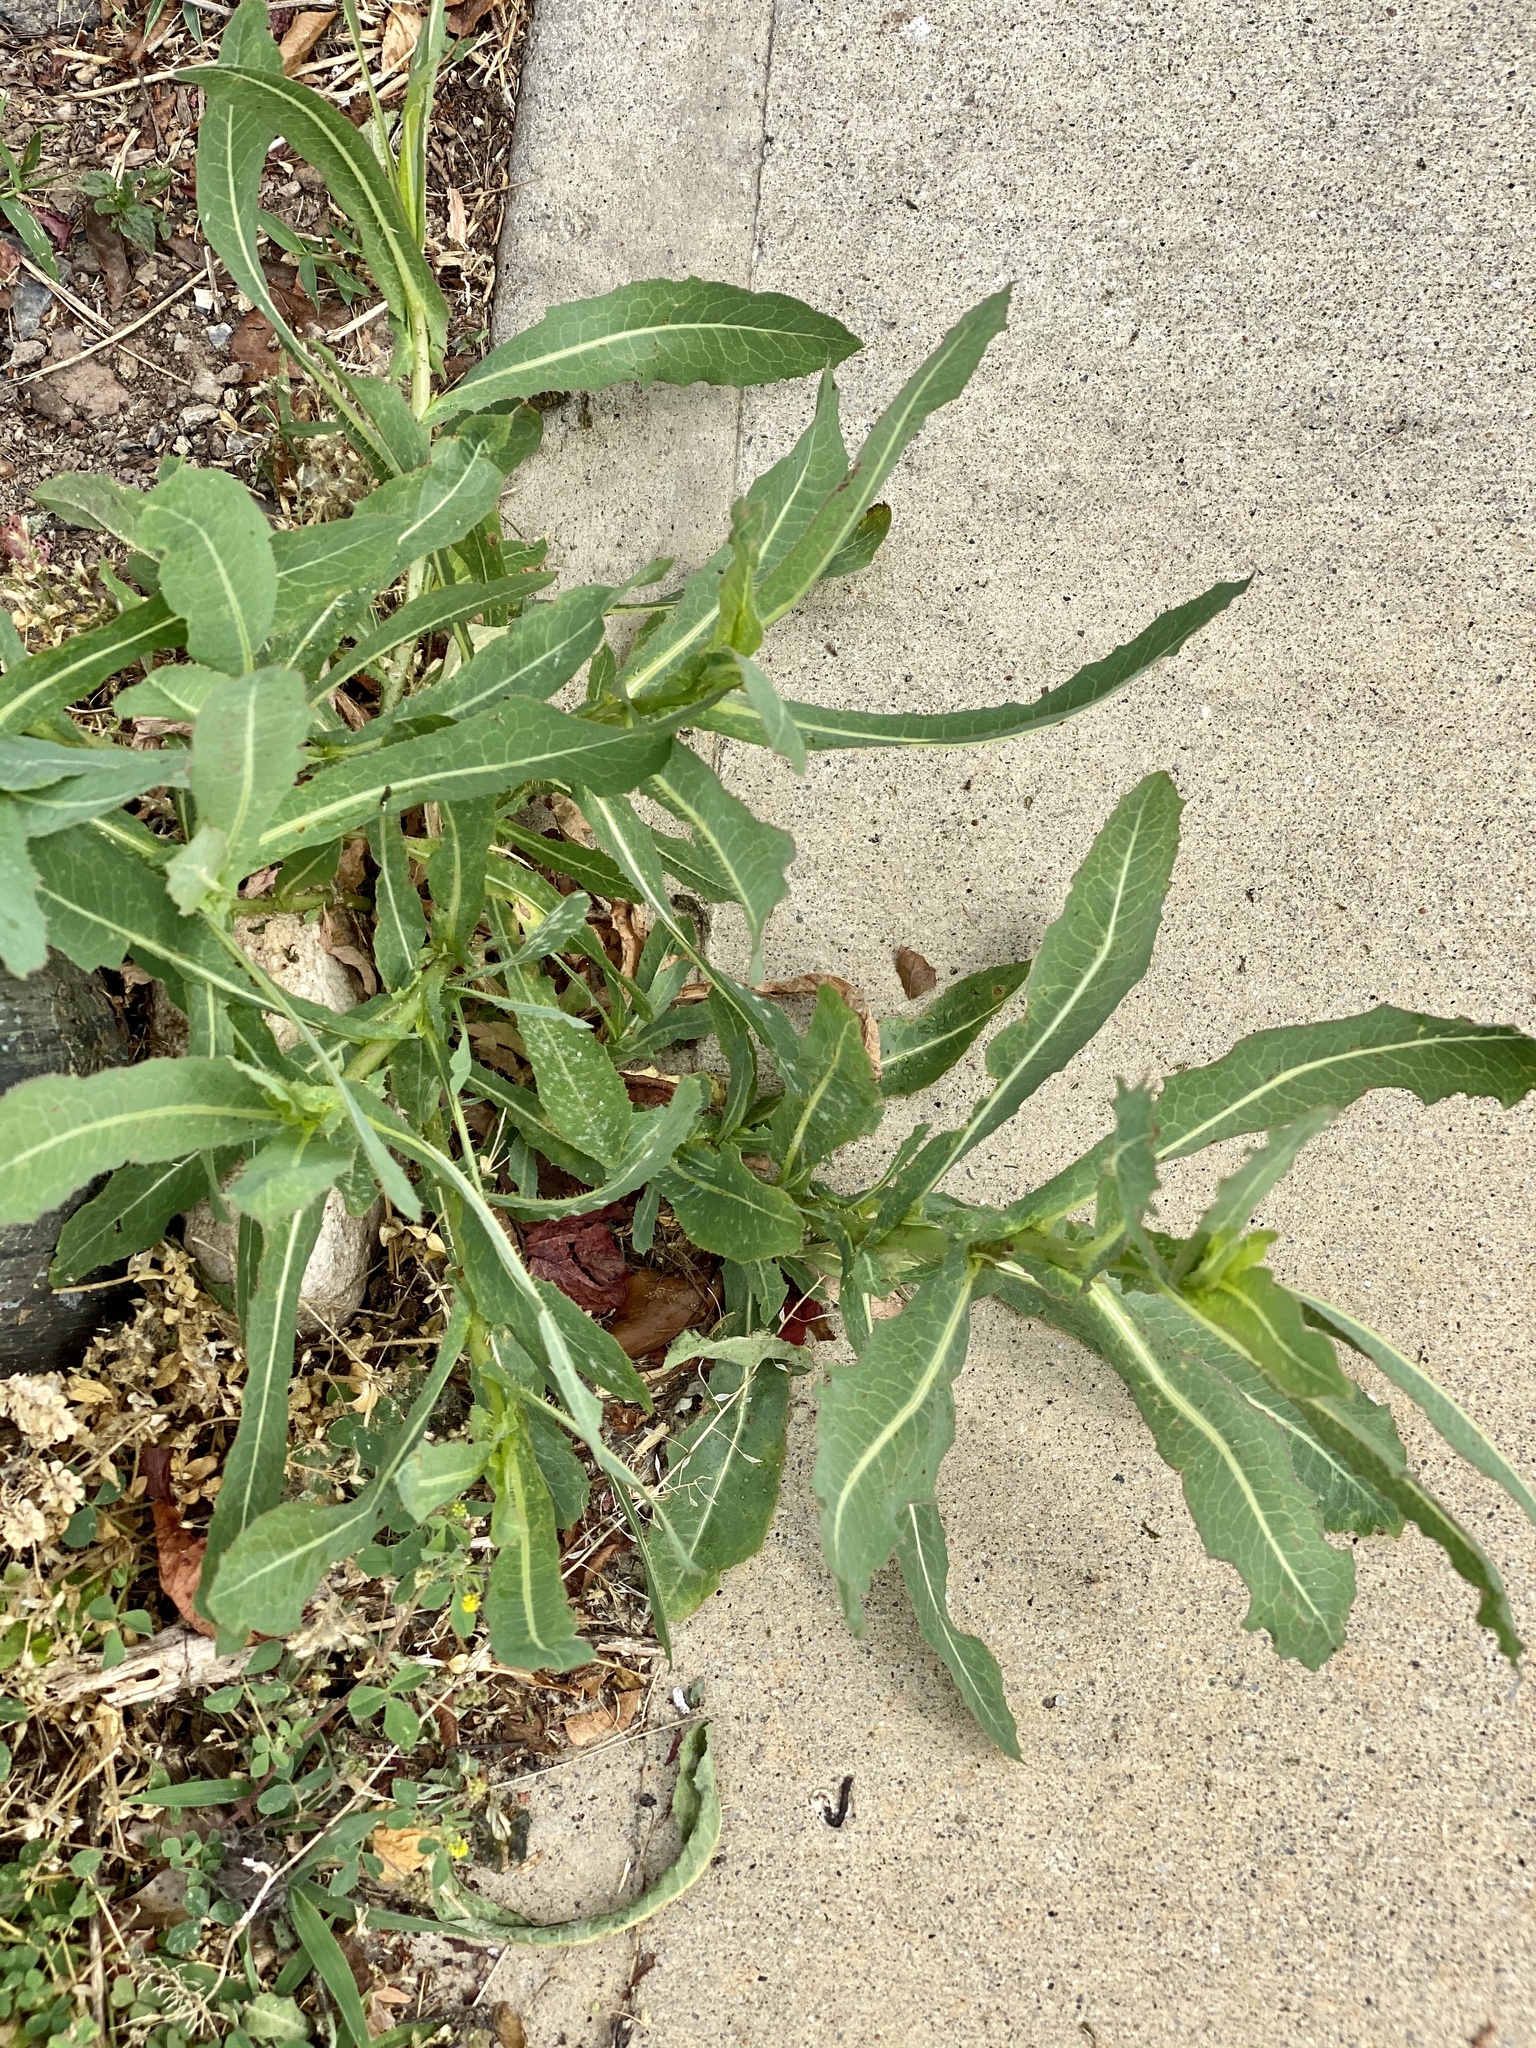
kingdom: Plantae
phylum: Tracheophyta
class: Magnoliopsida
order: Asterales
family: Asteraceae
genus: Lactuca
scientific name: Lactuca serriola
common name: Prickly lettuce
